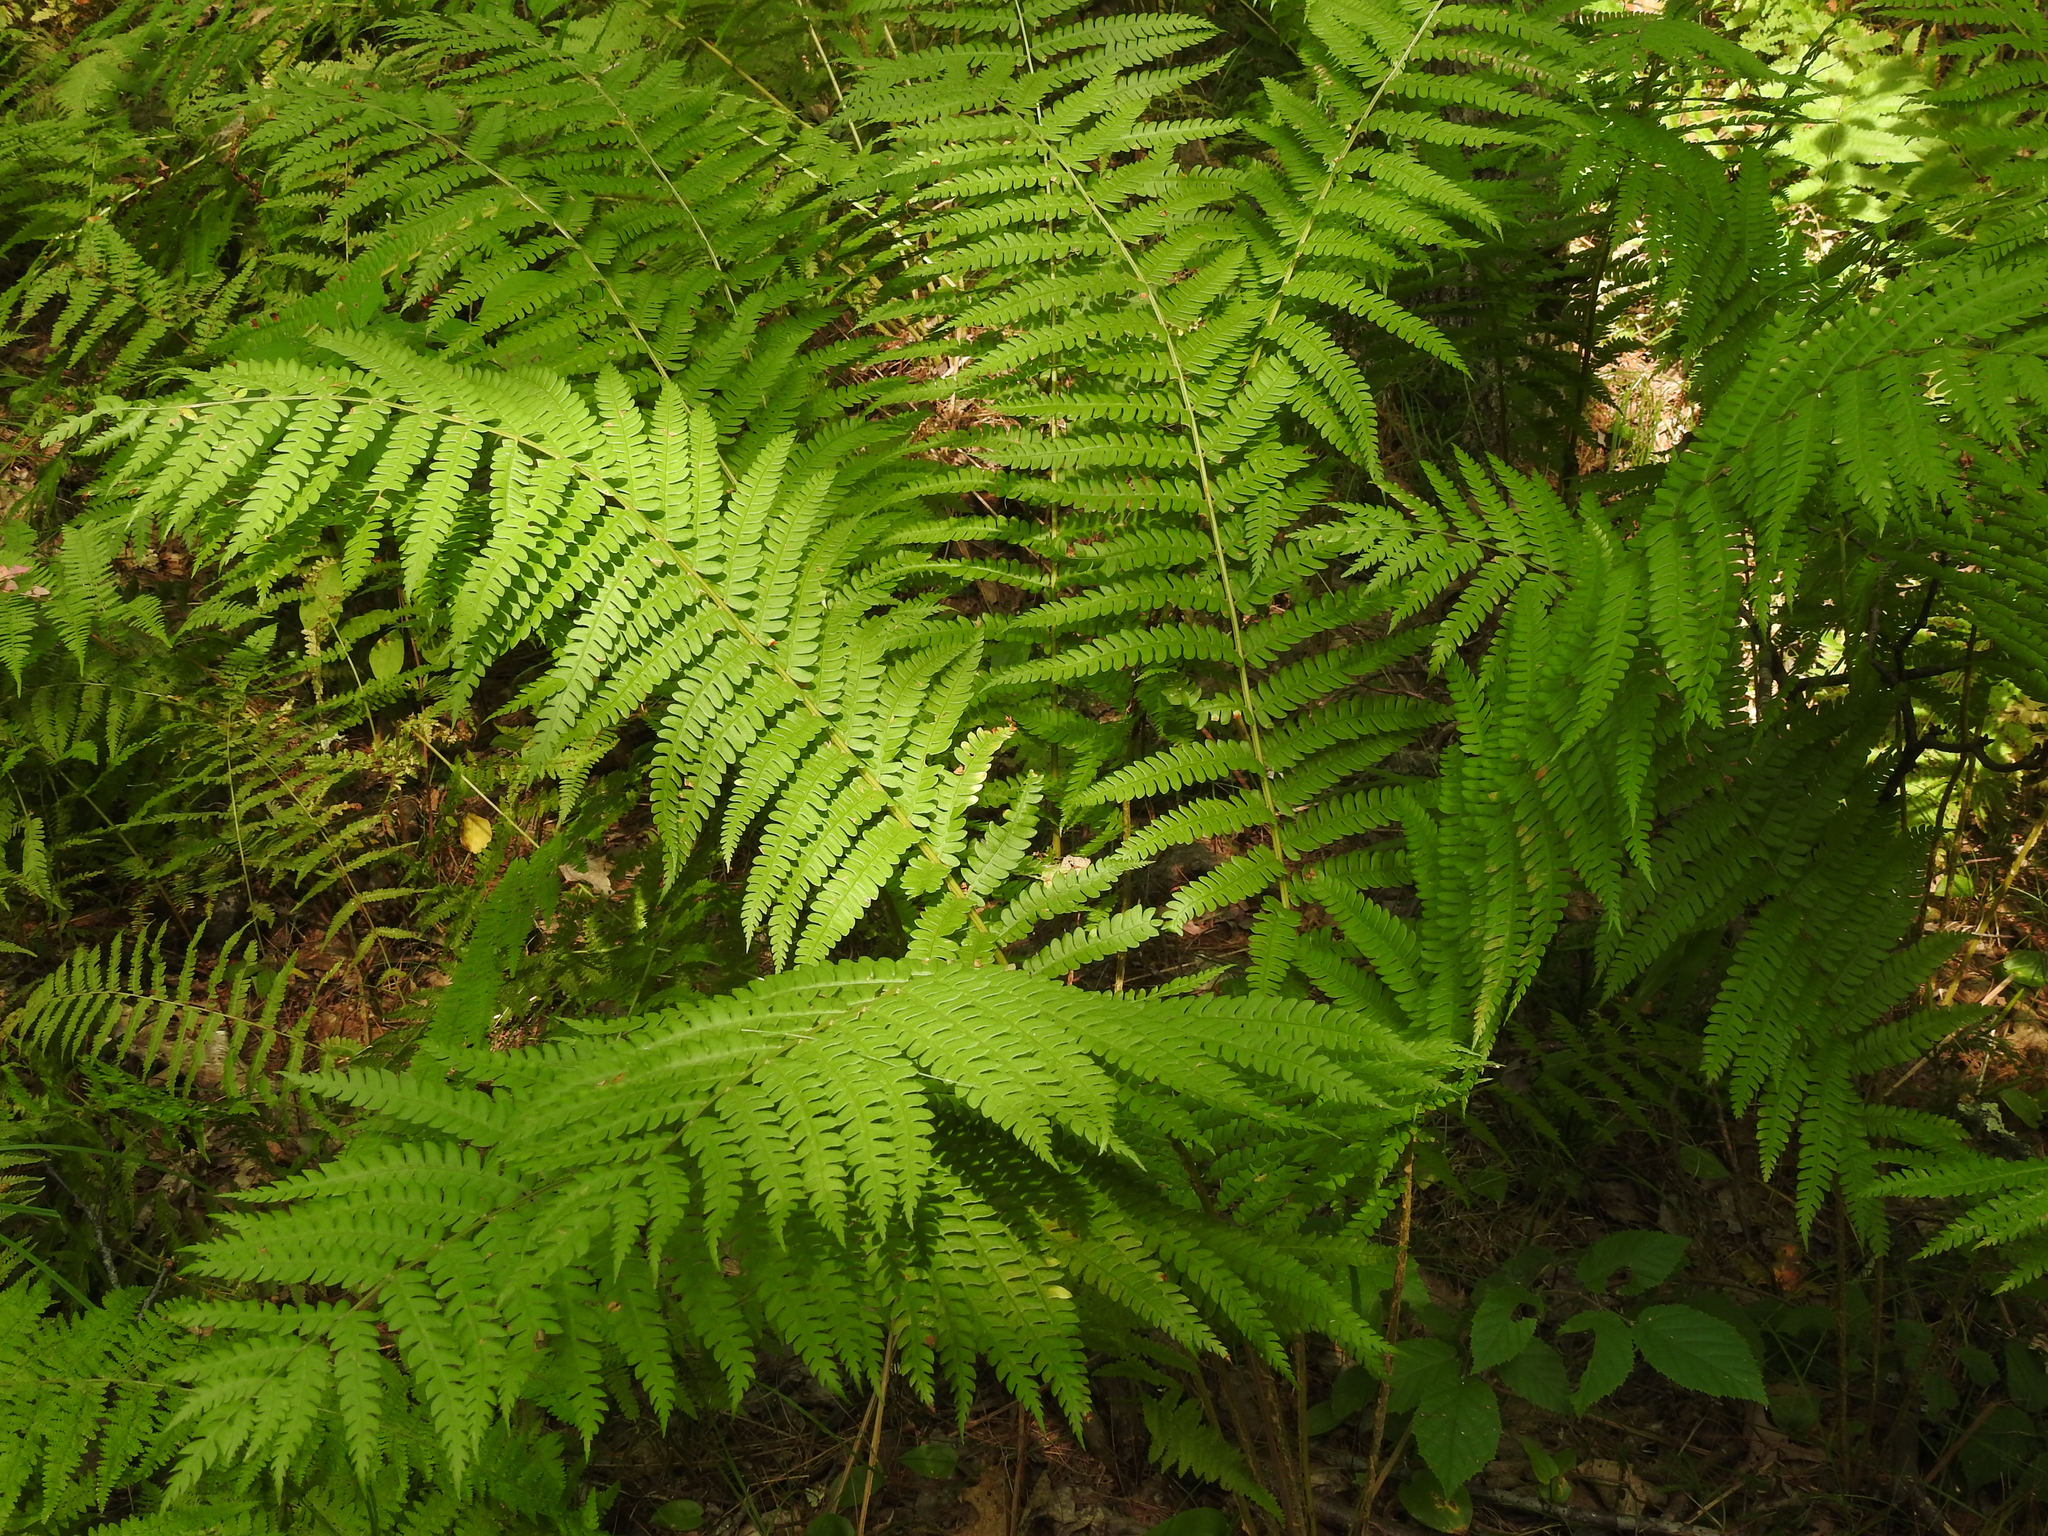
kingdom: Plantae
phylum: Tracheophyta
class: Polypodiopsida
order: Osmundales
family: Osmundaceae
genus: Osmundastrum
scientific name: Osmundastrum cinnamomeum
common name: Cinnamon fern
